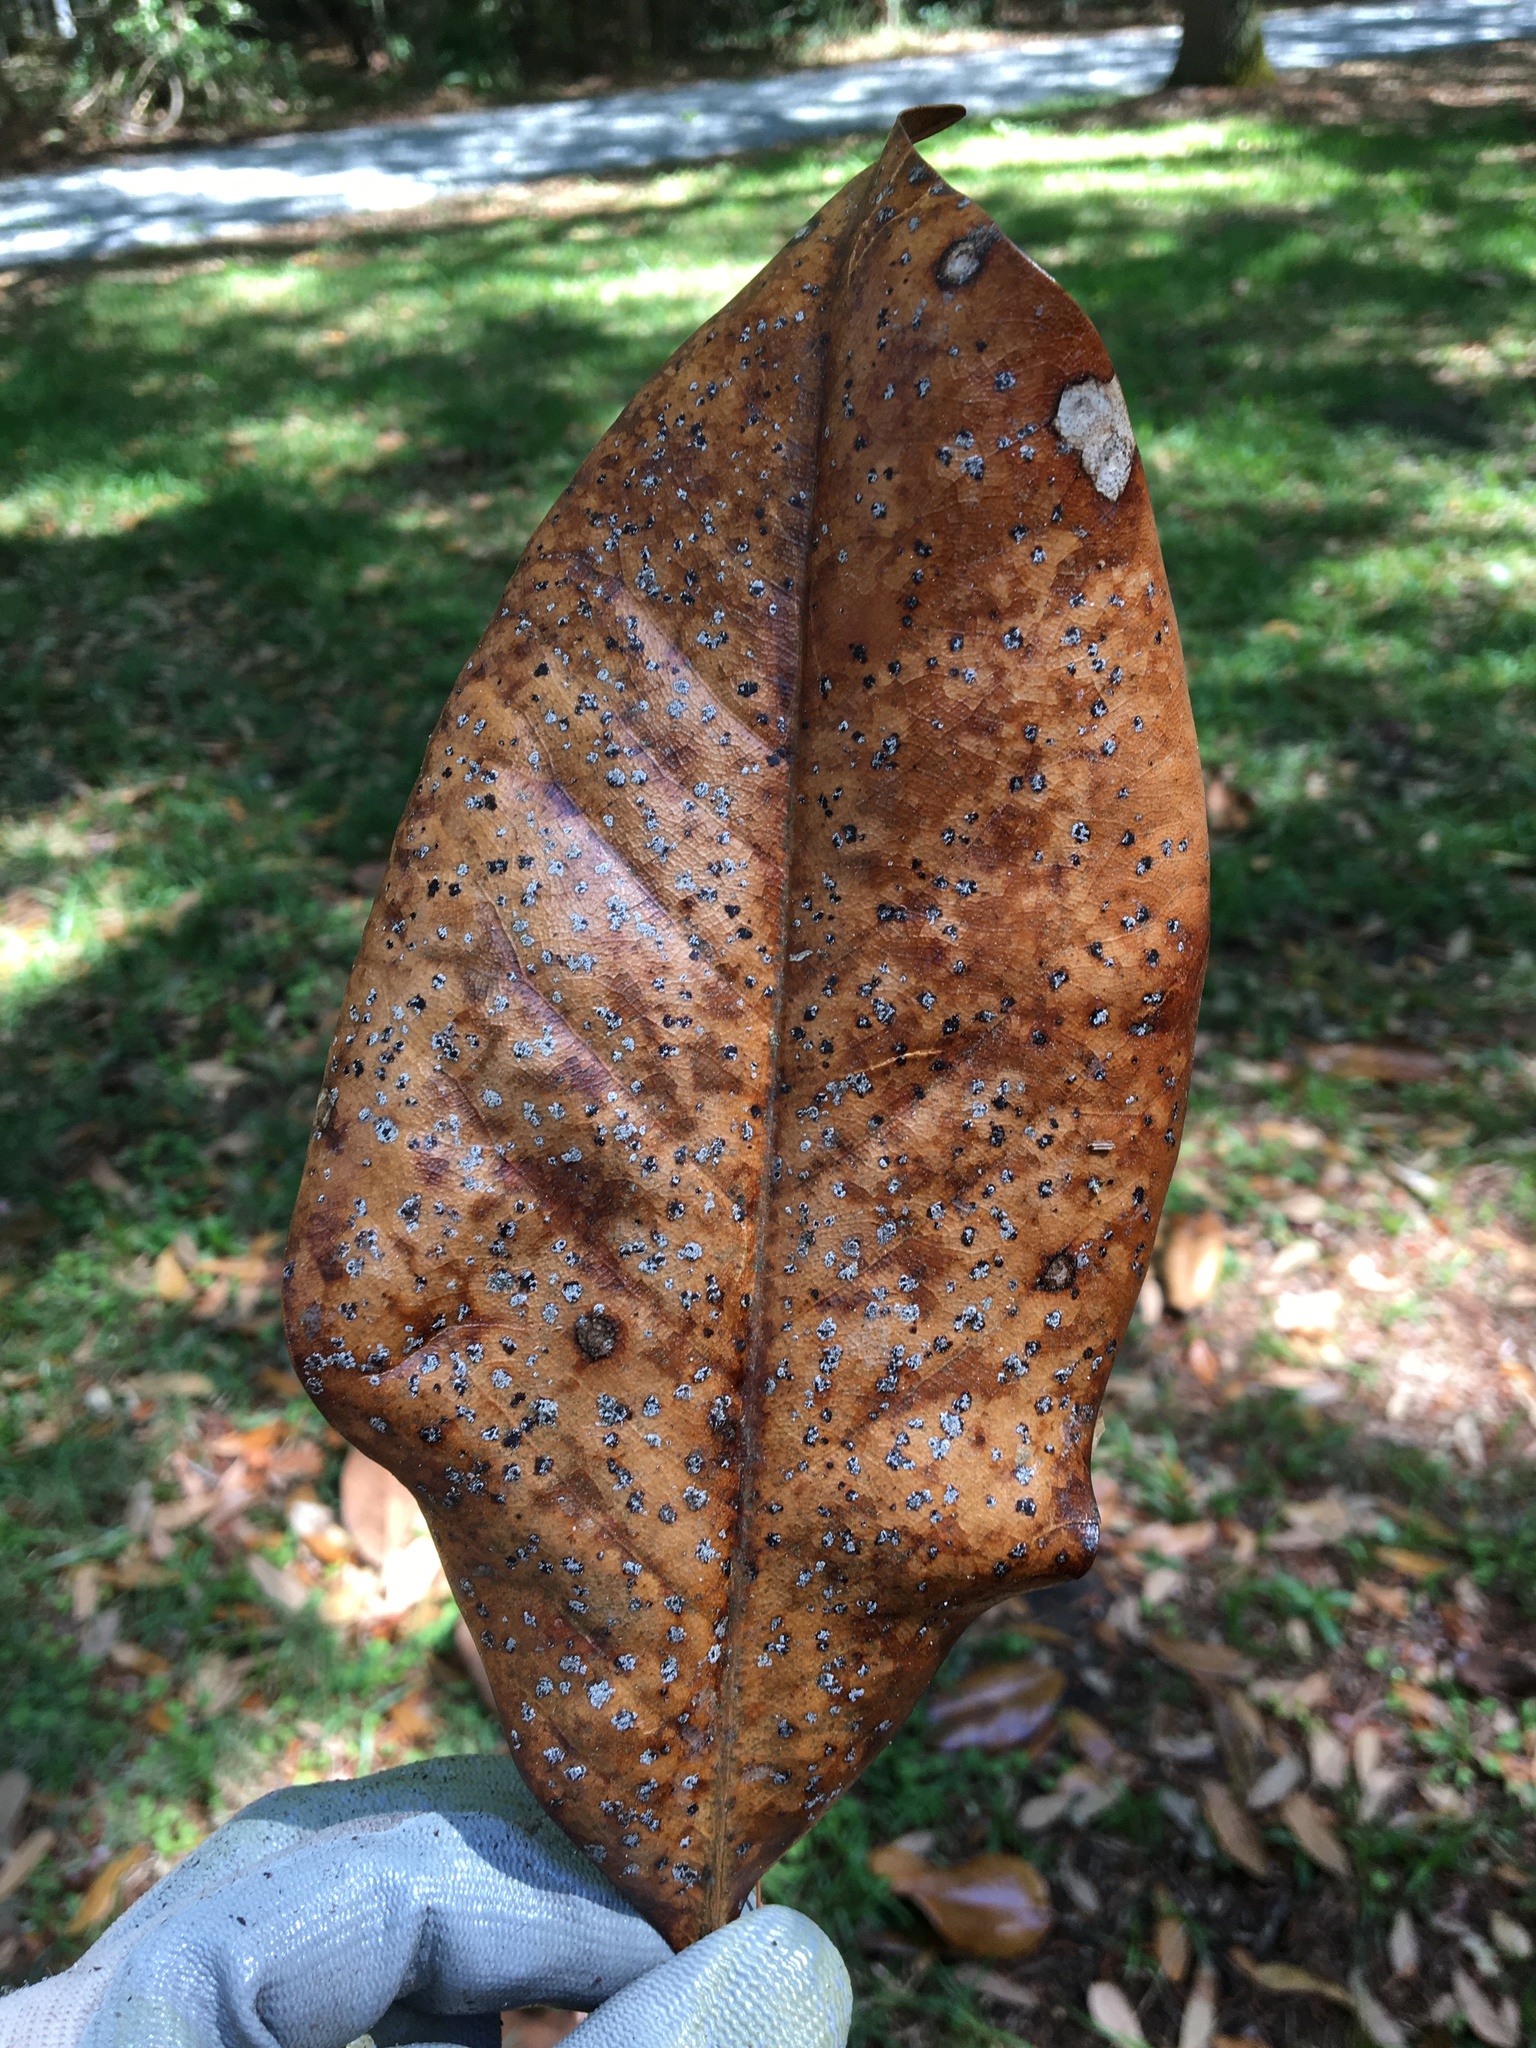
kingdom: Plantae
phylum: Tracheophyta
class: Magnoliopsida
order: Magnoliales
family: Magnoliaceae
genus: Magnolia
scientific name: Magnolia grandiflora
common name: Southern magnolia
